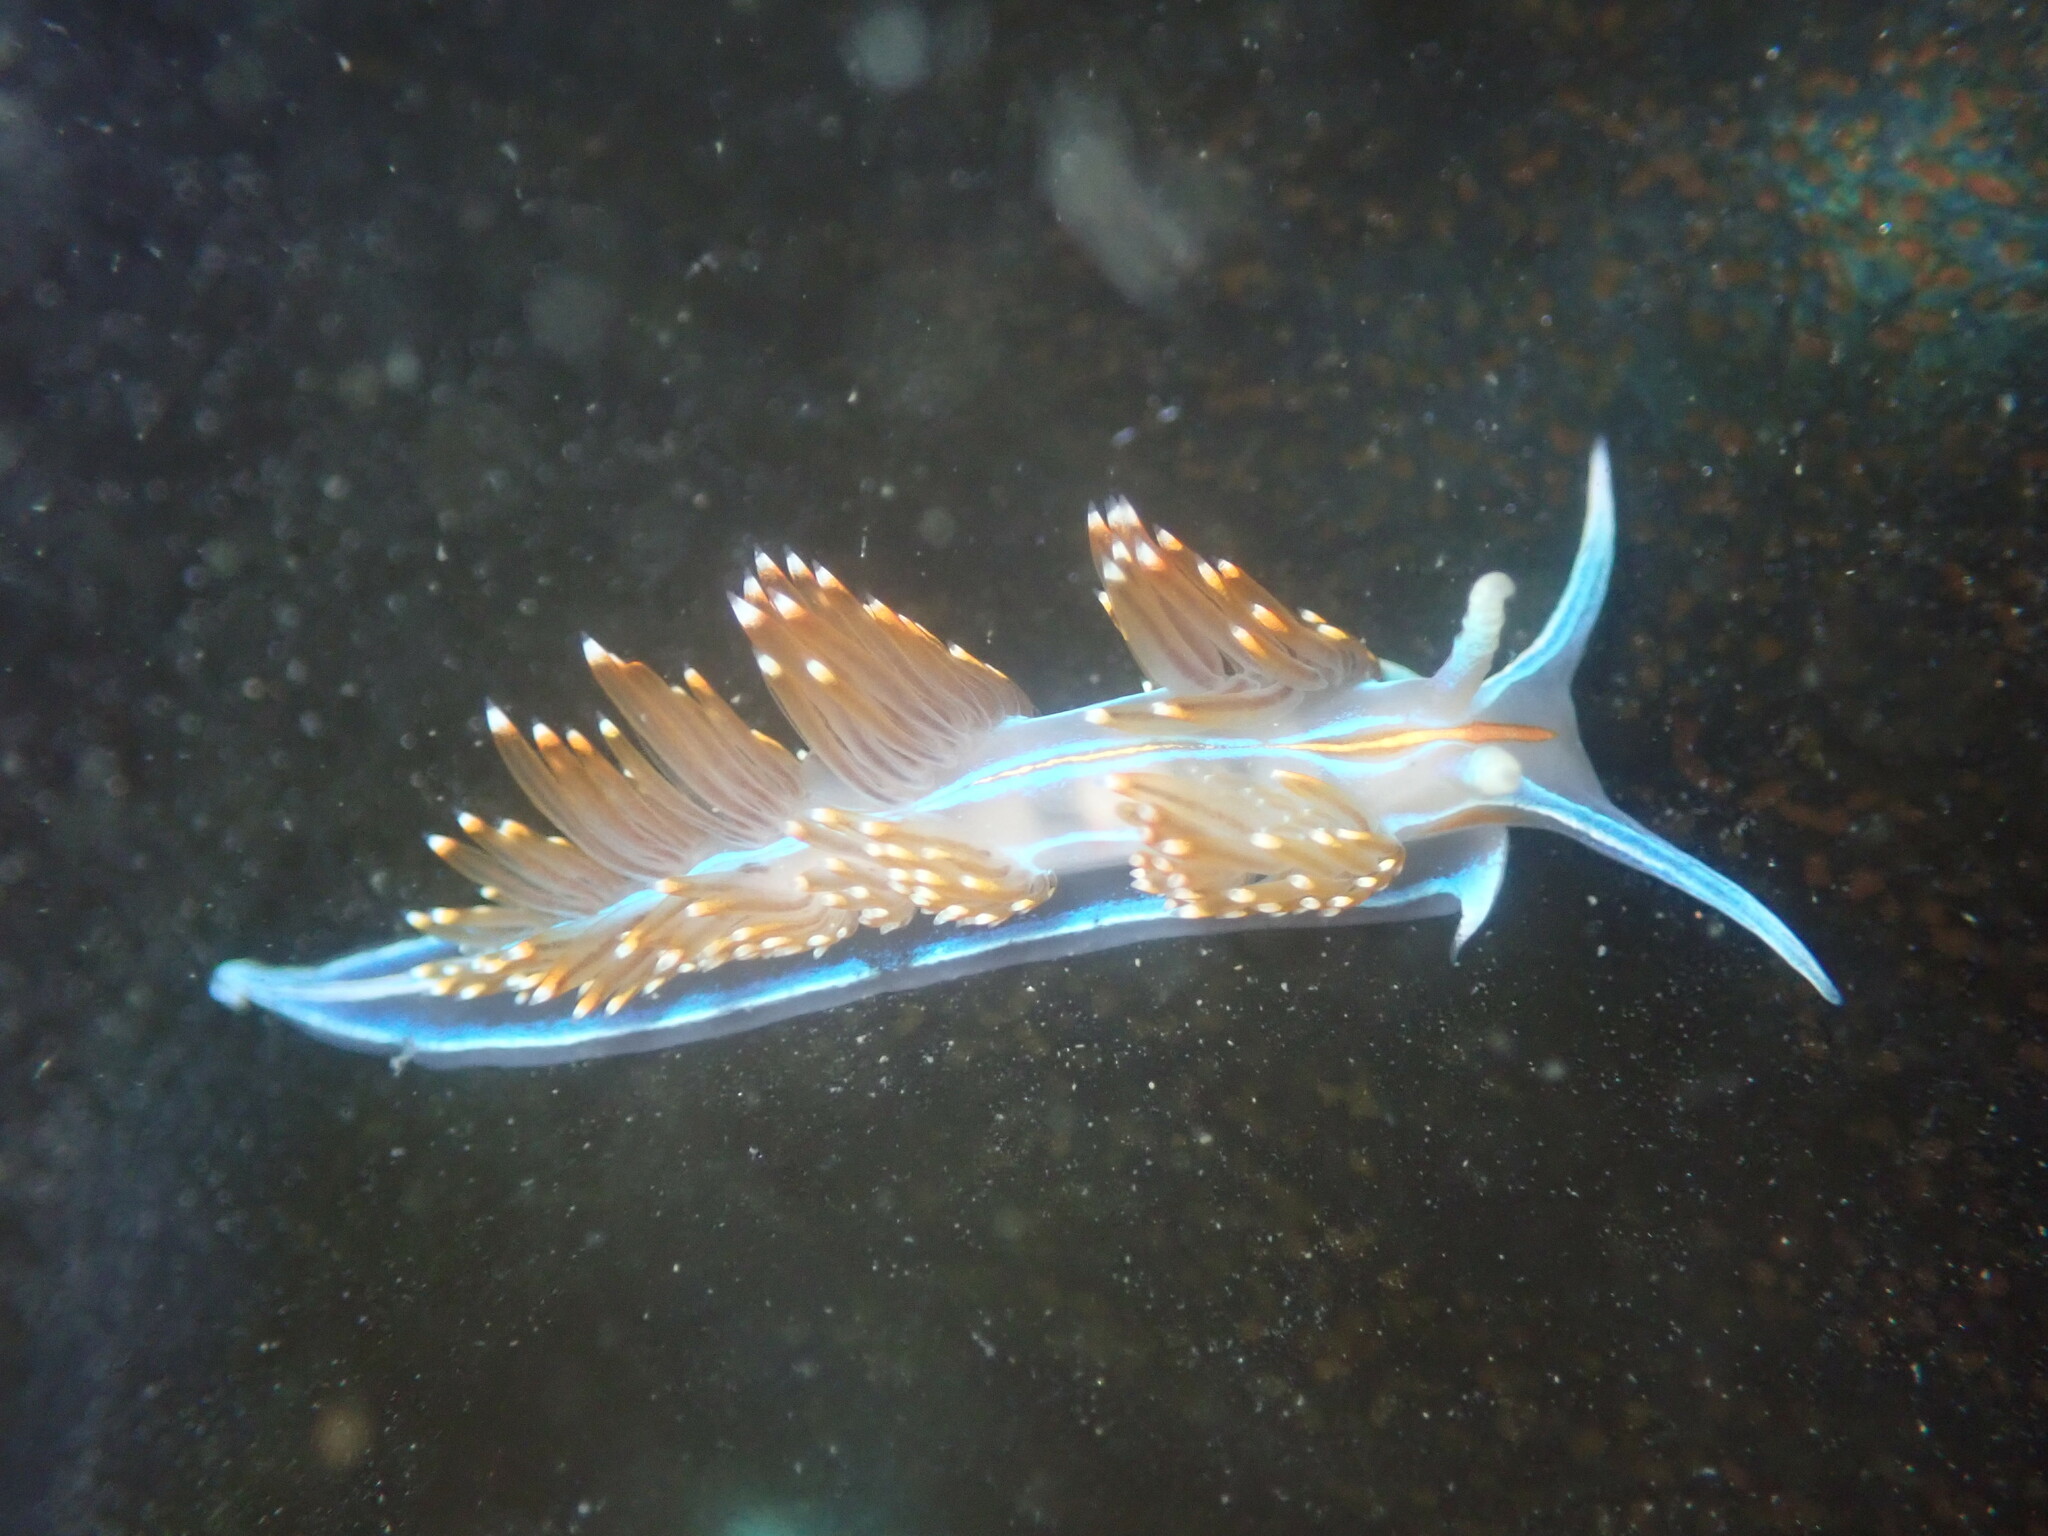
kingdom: Animalia
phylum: Mollusca
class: Gastropoda
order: Nudibranchia
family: Myrrhinidae
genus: Hermissenda
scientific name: Hermissenda opalescens
